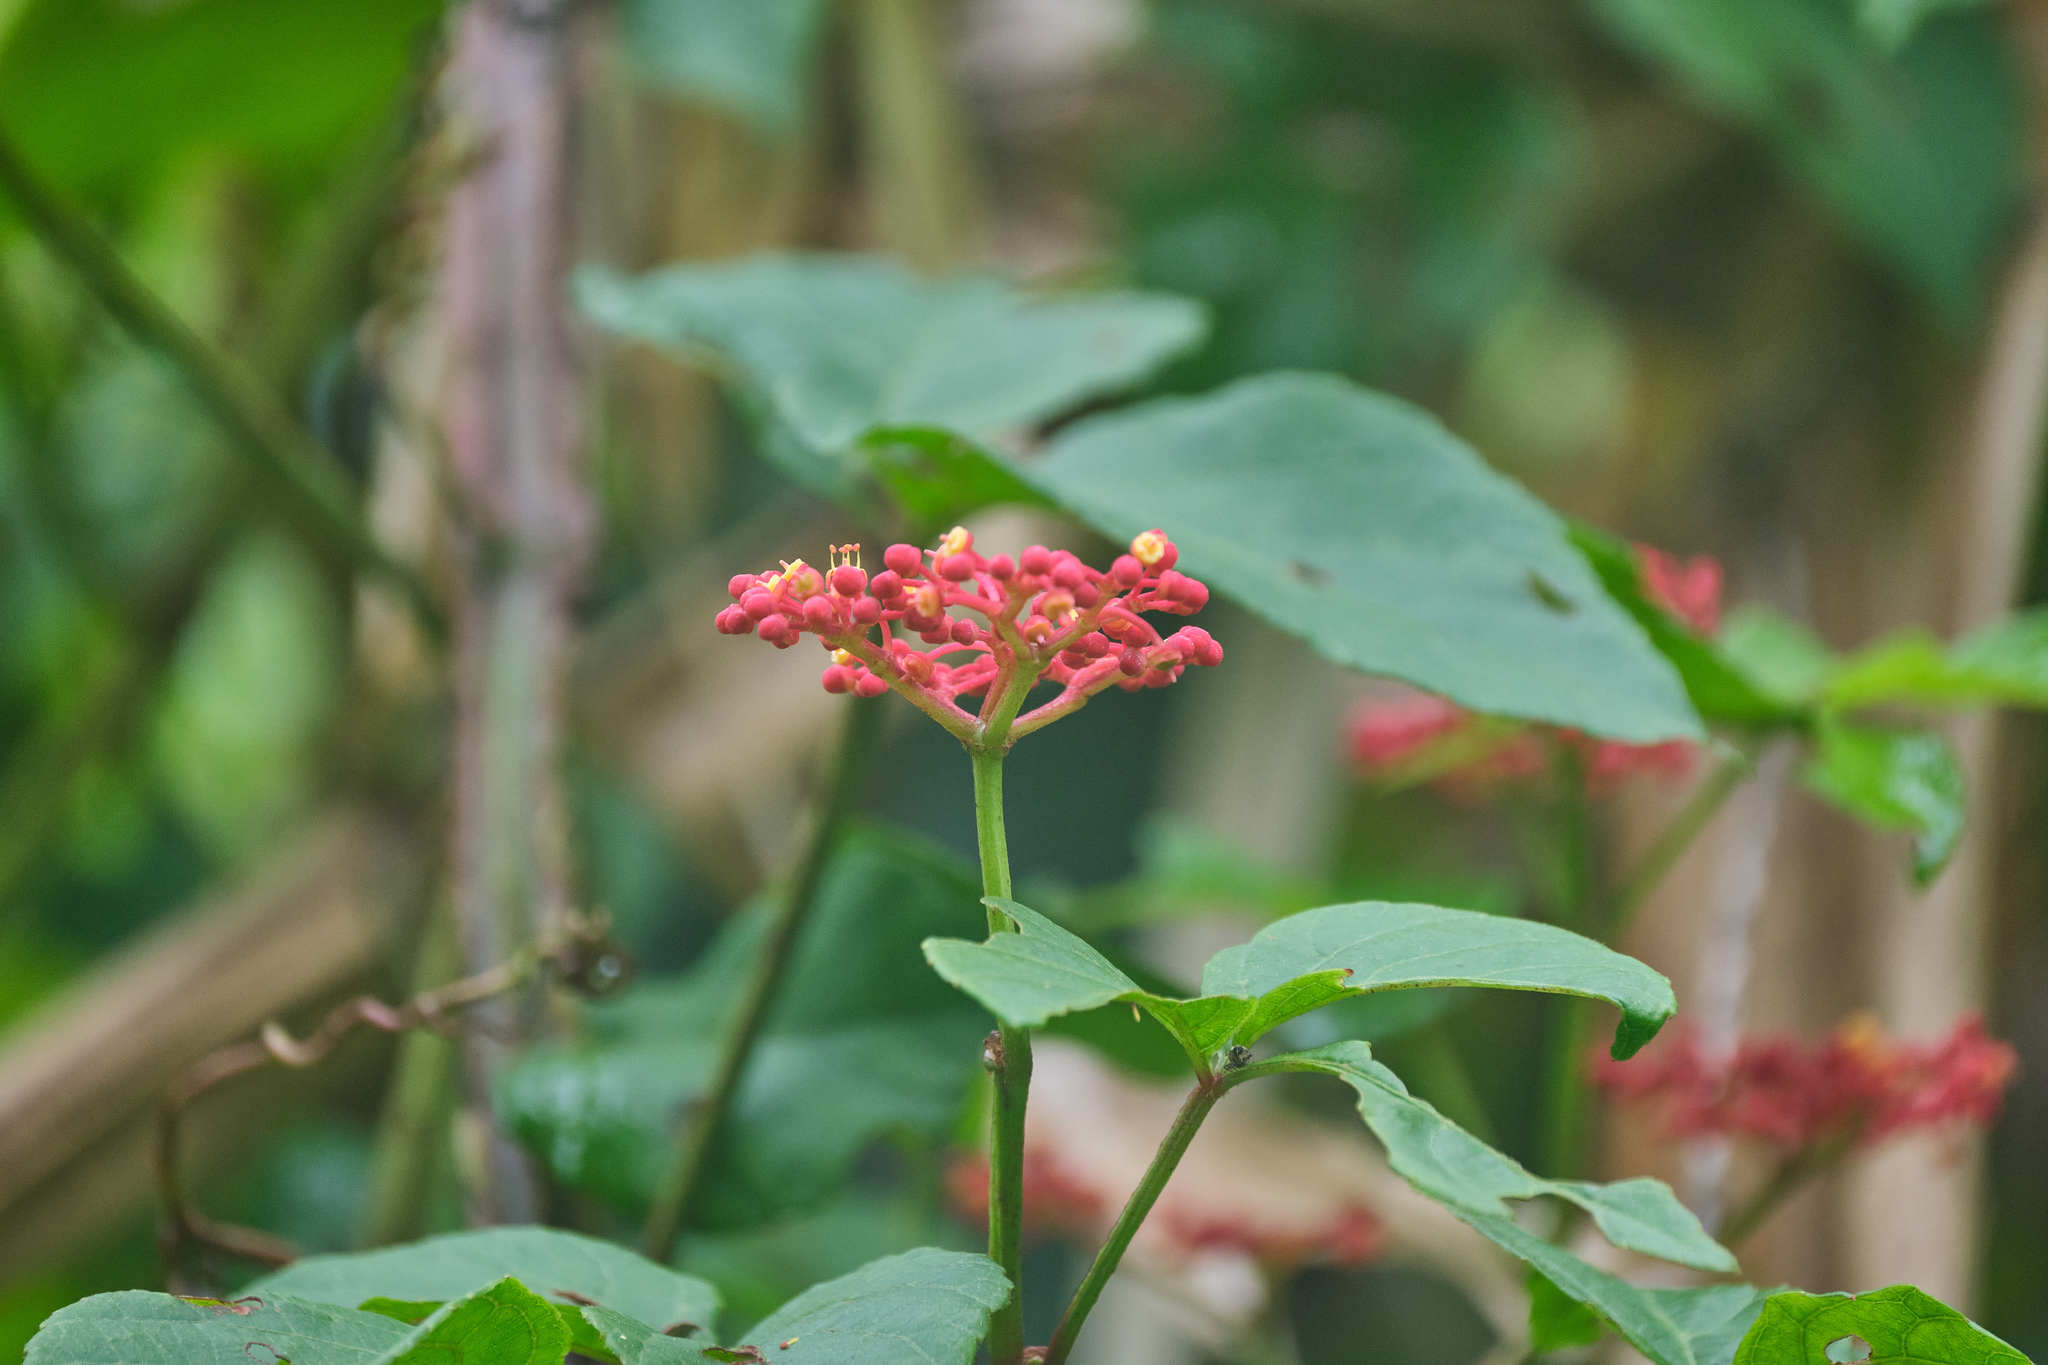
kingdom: Plantae
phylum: Tracheophyta
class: Magnoliopsida
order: Vitales
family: Vitaceae
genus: Cissus
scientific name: Cissus erosa
